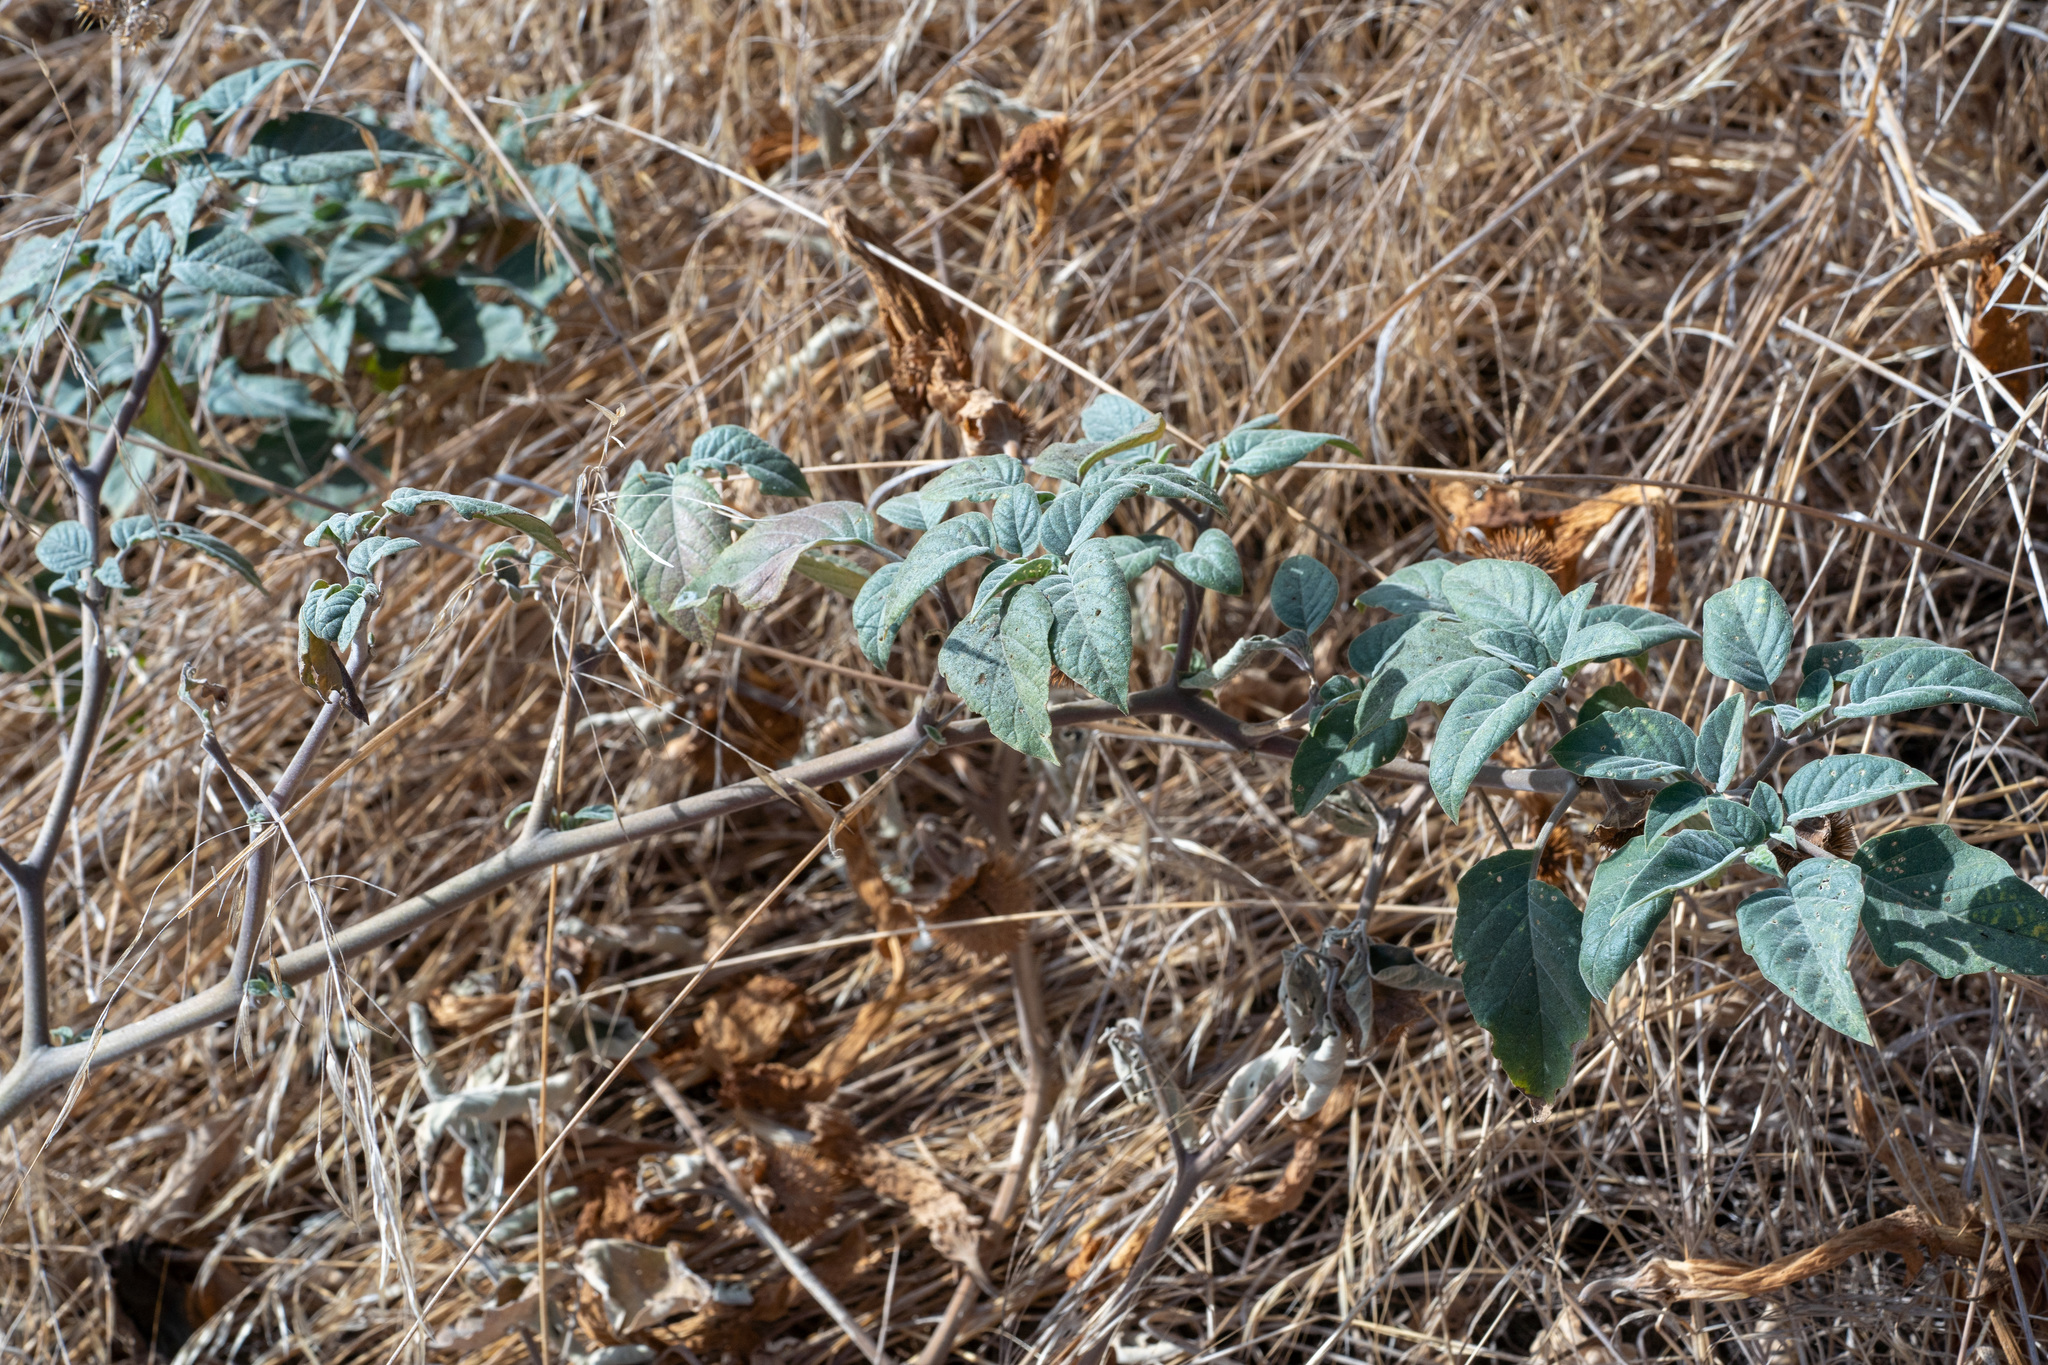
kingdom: Plantae
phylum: Tracheophyta
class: Magnoliopsida
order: Solanales
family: Solanaceae
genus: Datura
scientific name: Datura wrightii
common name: Sacred thorn-apple
